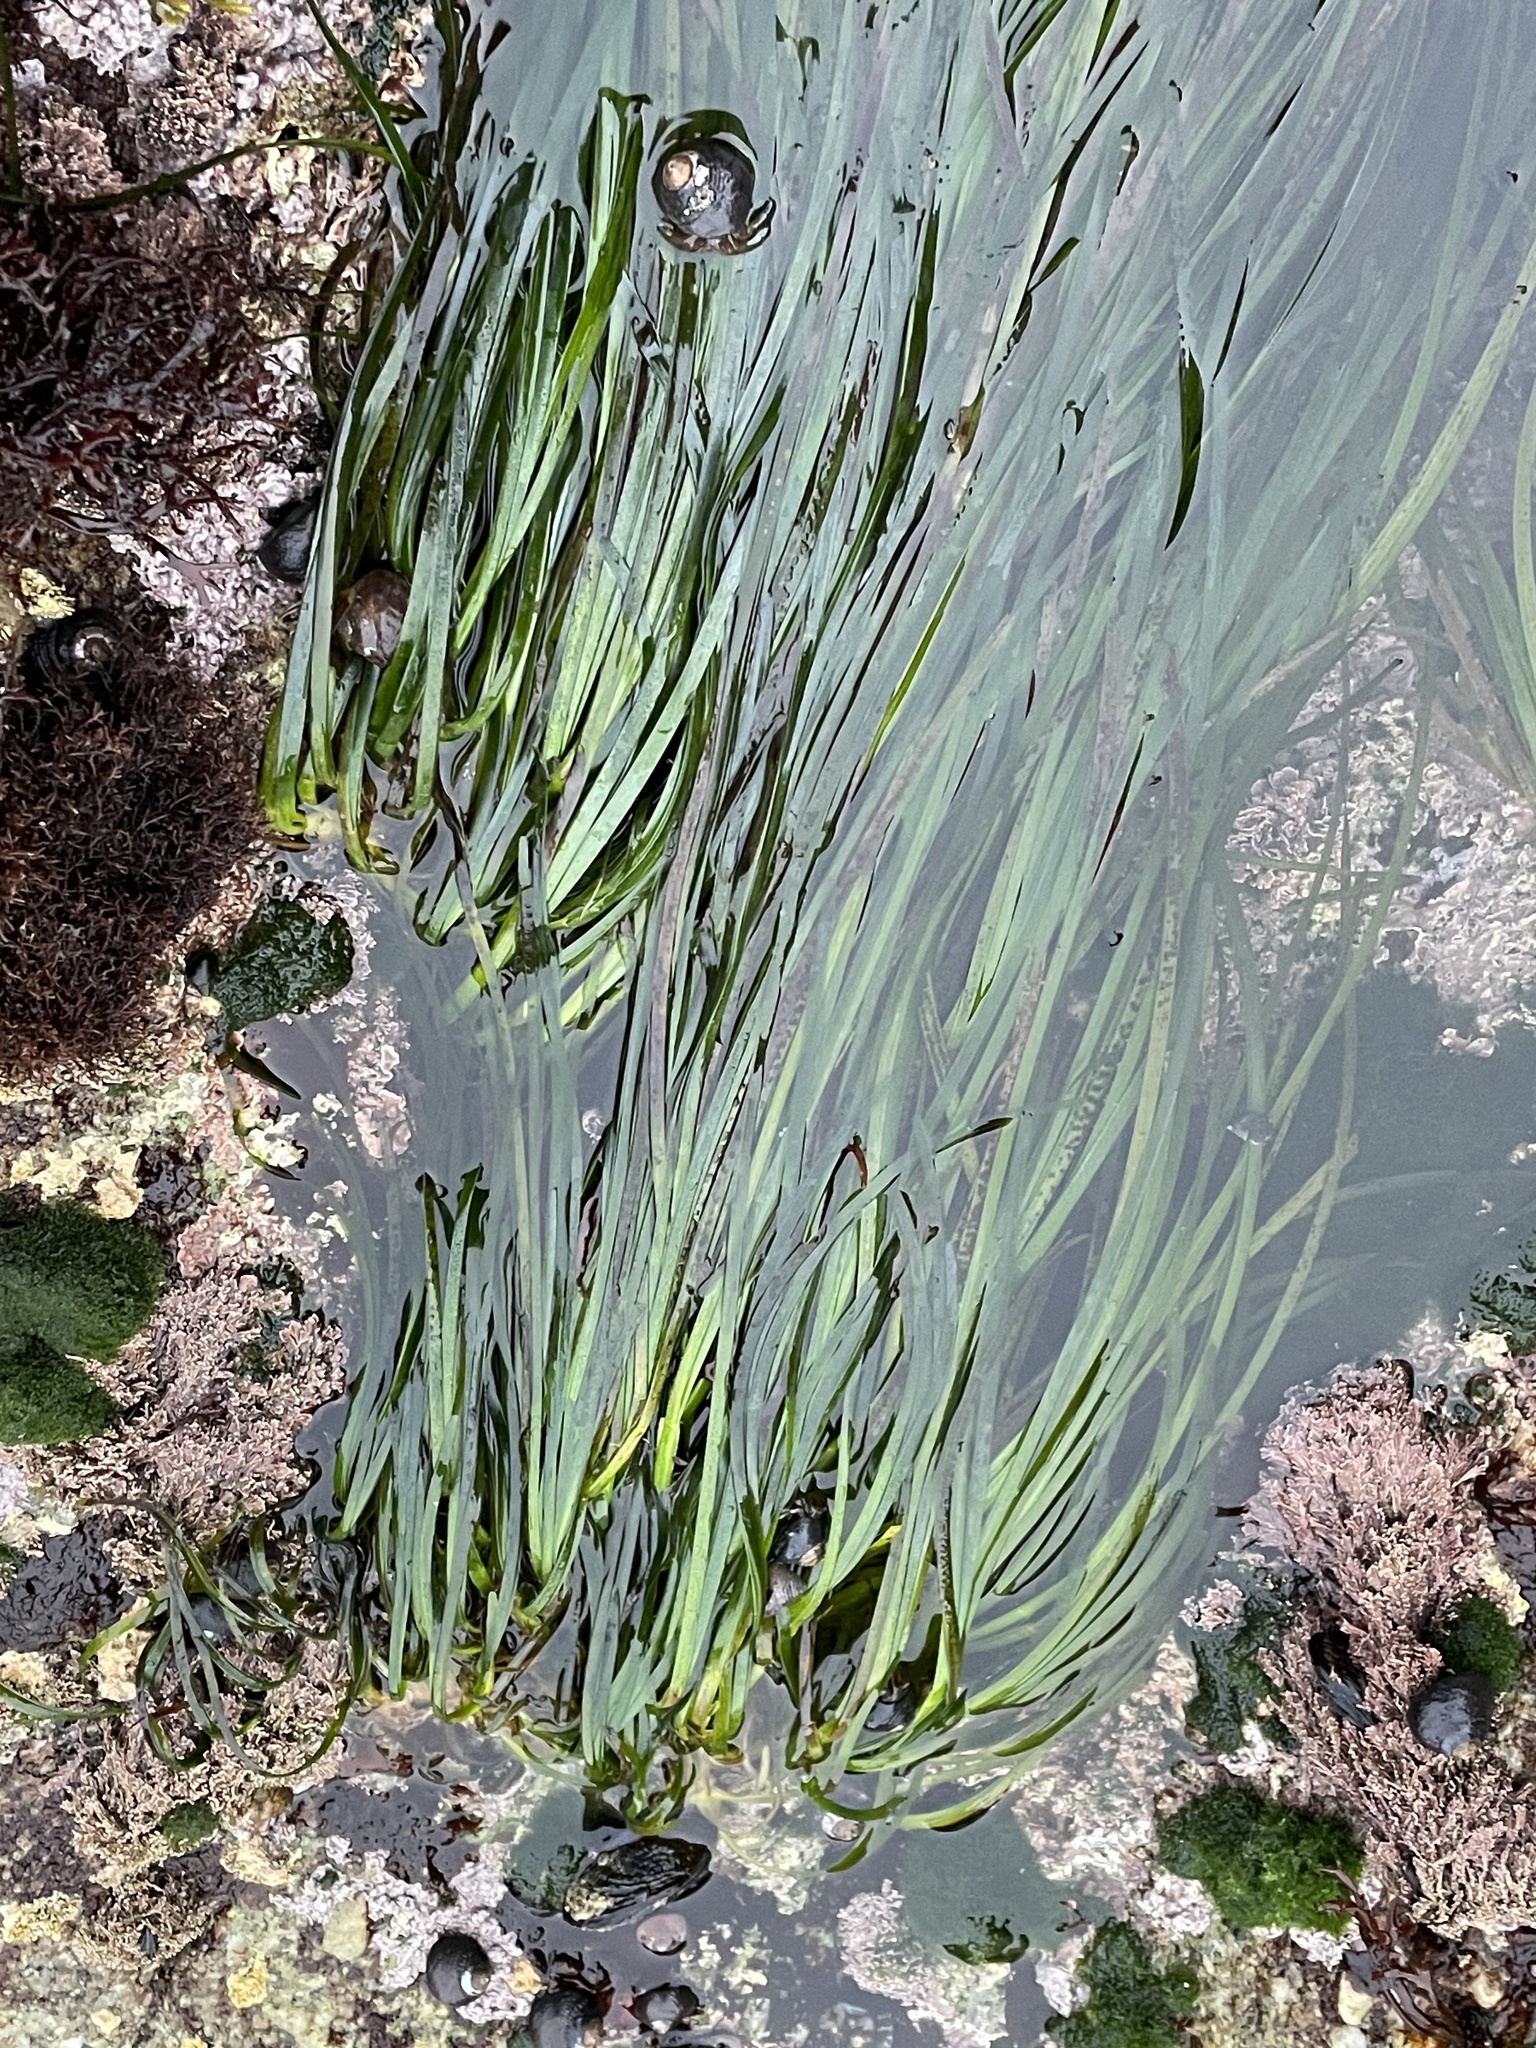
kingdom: Plantae
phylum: Tracheophyta
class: Liliopsida
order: Alismatales
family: Zosteraceae
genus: Phyllospadix
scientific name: Phyllospadix scouleri
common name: Species code: ps
